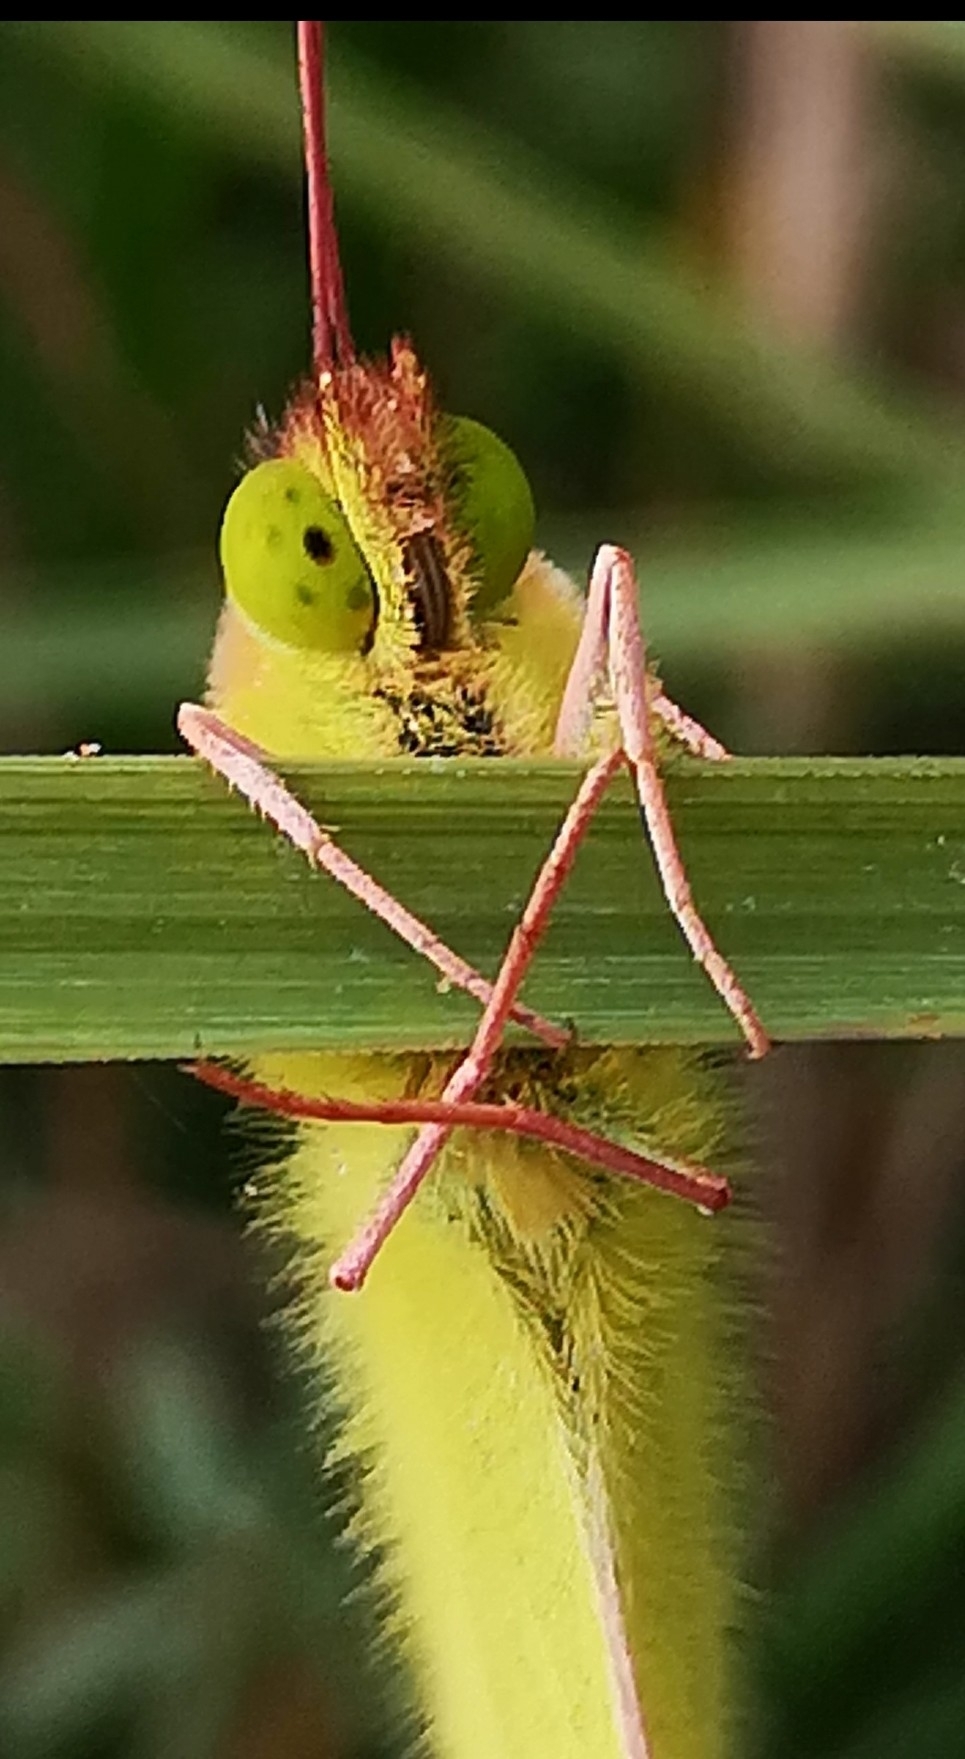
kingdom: Animalia
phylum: Arthropoda
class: Insecta
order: Lepidoptera
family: Pieridae
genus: Colias
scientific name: Colias croceus
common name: Clouded yellow
